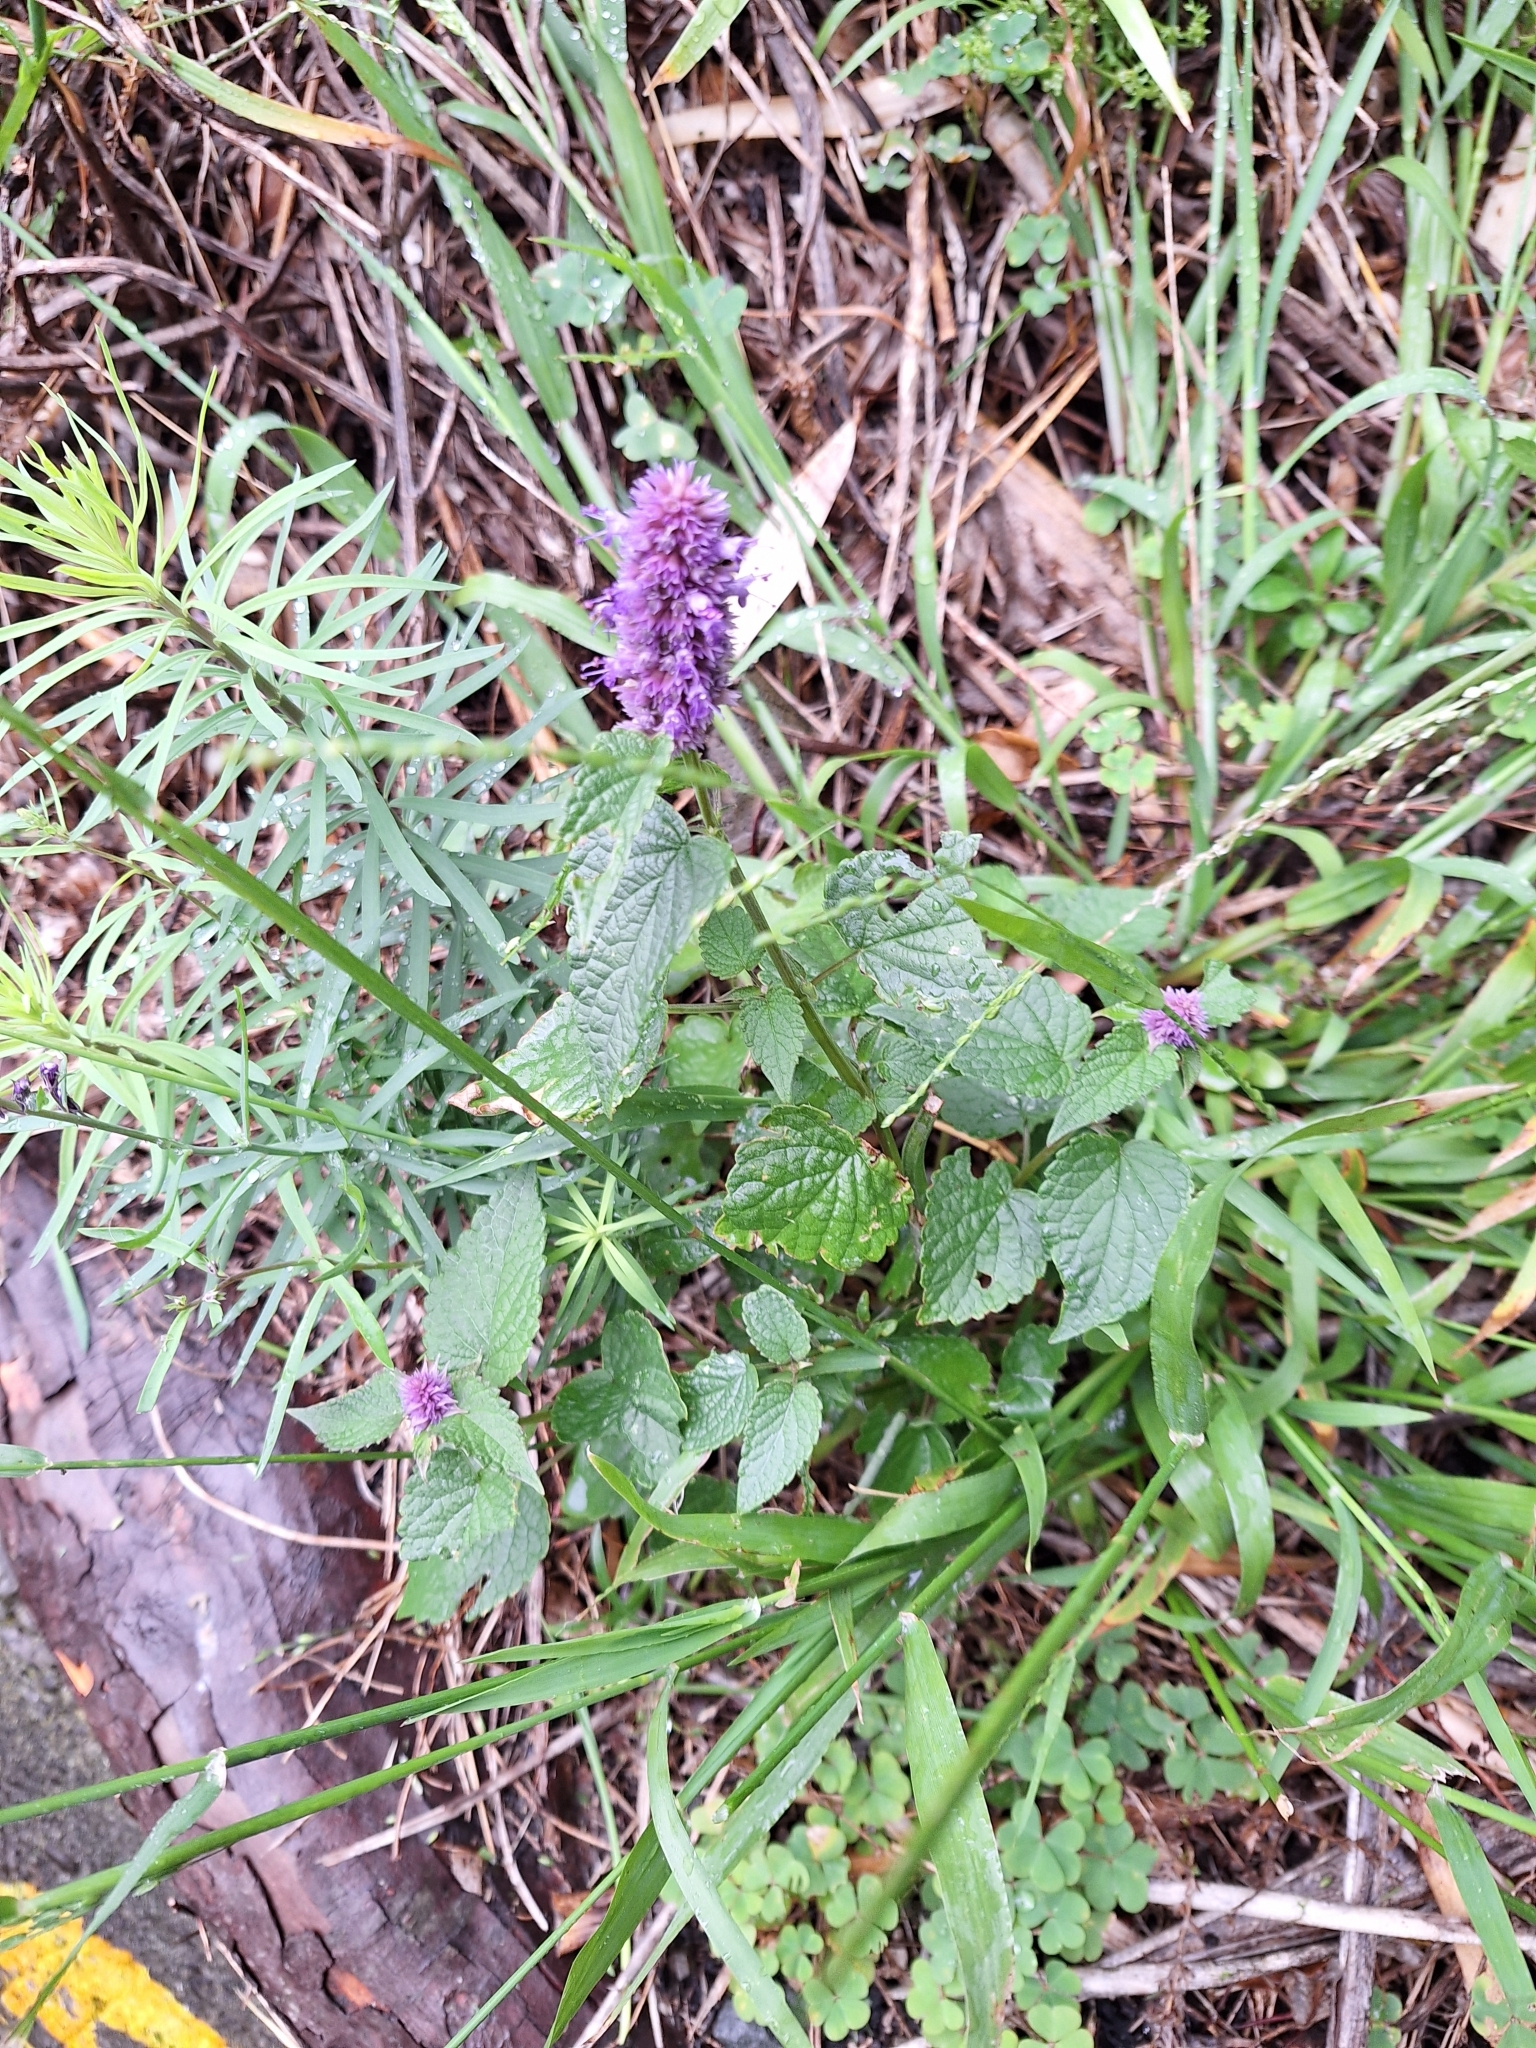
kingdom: Plantae
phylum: Tracheophyta
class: Magnoliopsida
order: Lamiales
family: Lamiaceae
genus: Agastache
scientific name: Agastache foeniculum
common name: Anise hyssop
